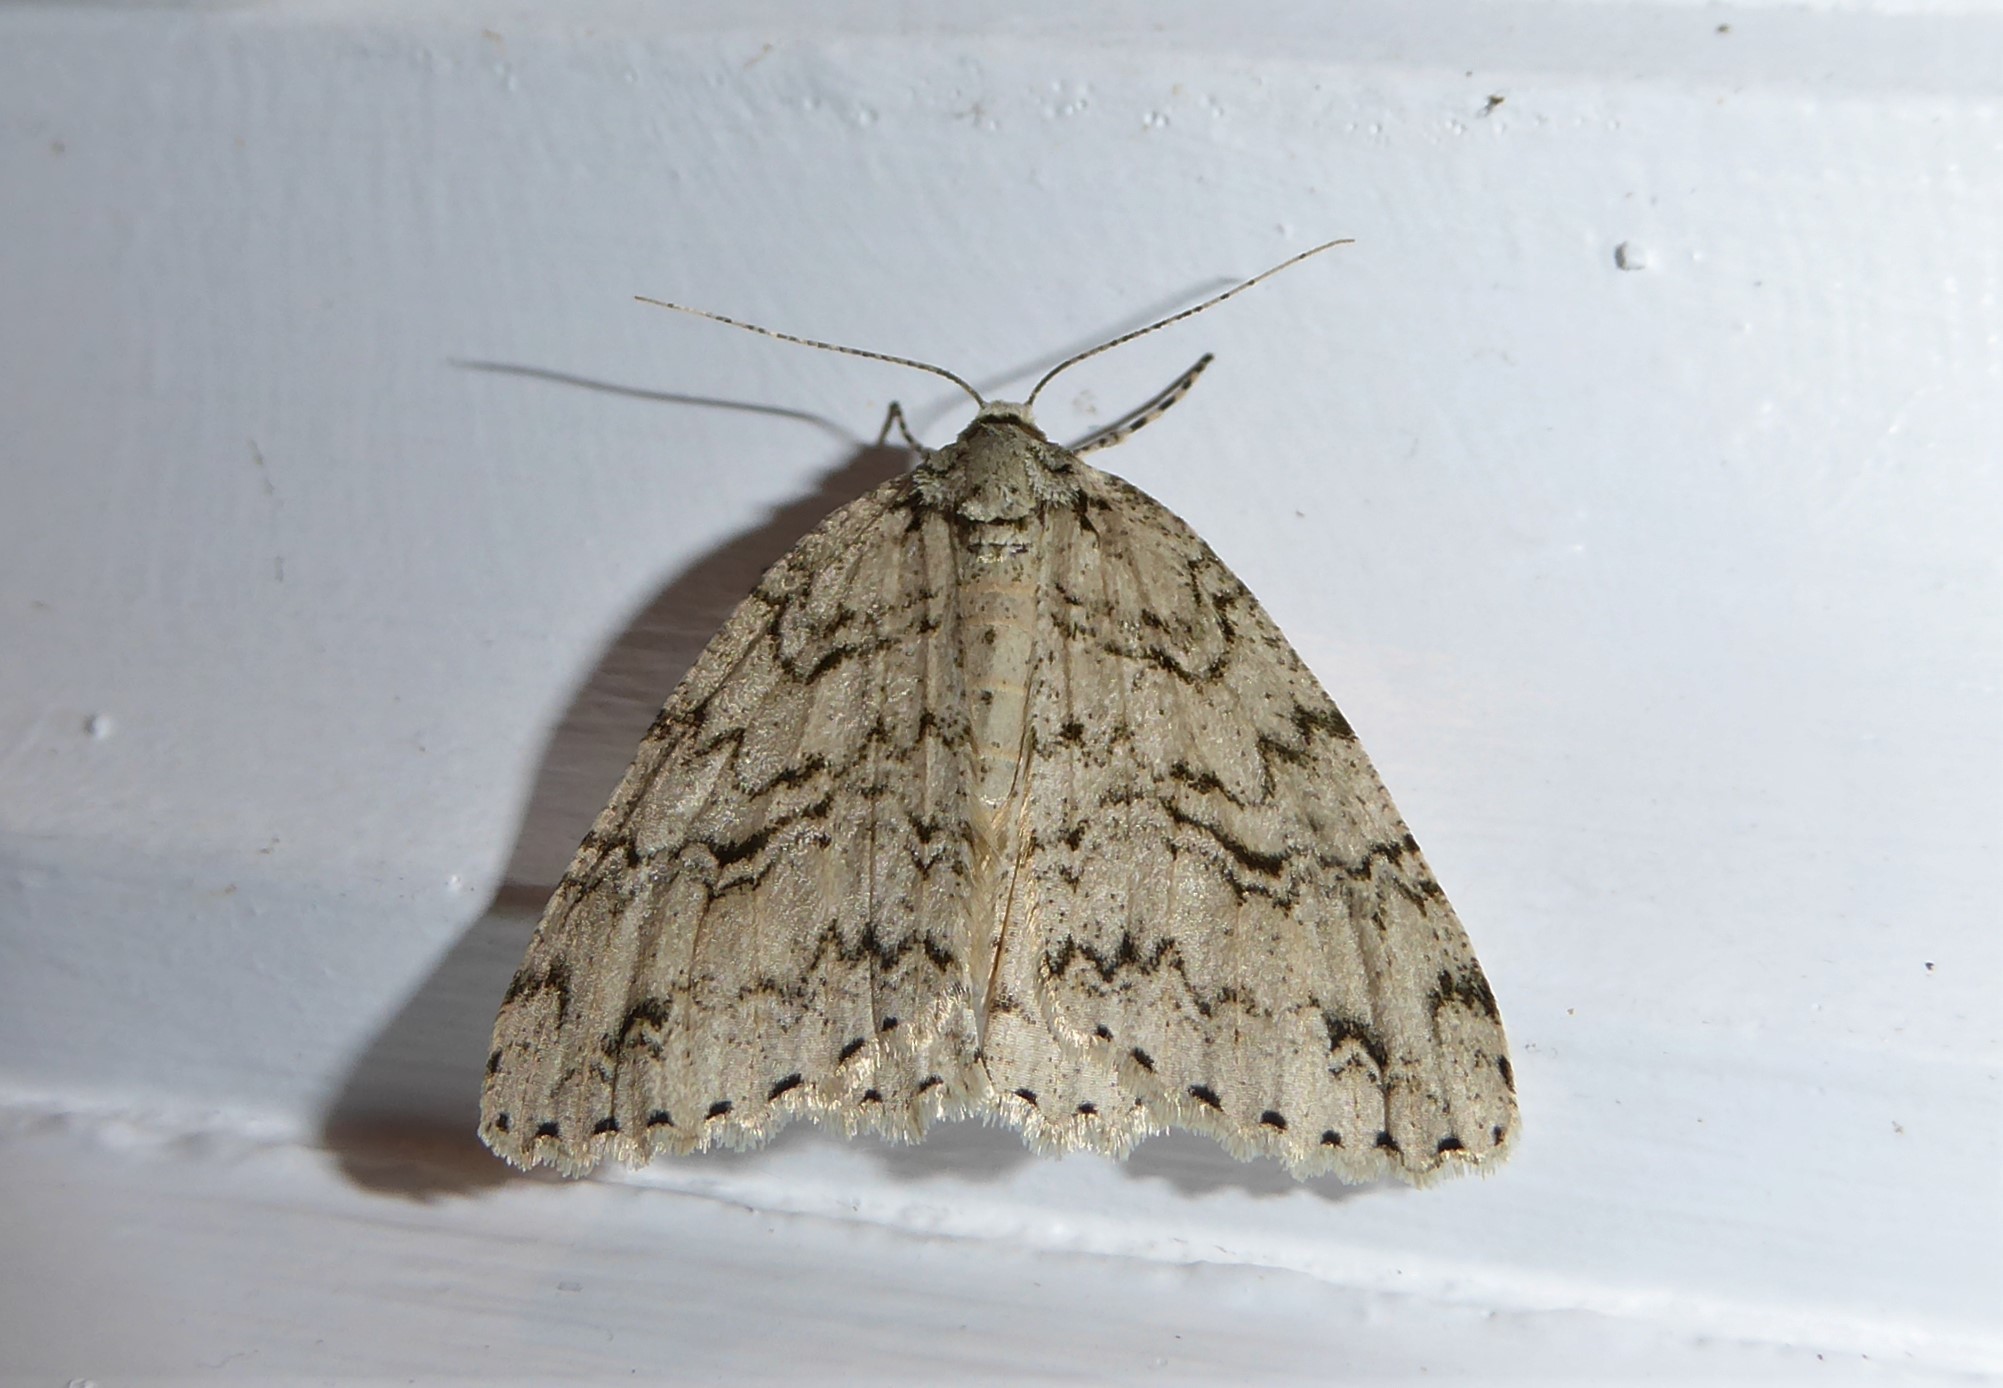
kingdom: Animalia
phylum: Arthropoda
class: Insecta
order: Lepidoptera
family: Geometridae
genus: Pseudocoremia
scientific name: Pseudocoremia rudisata
